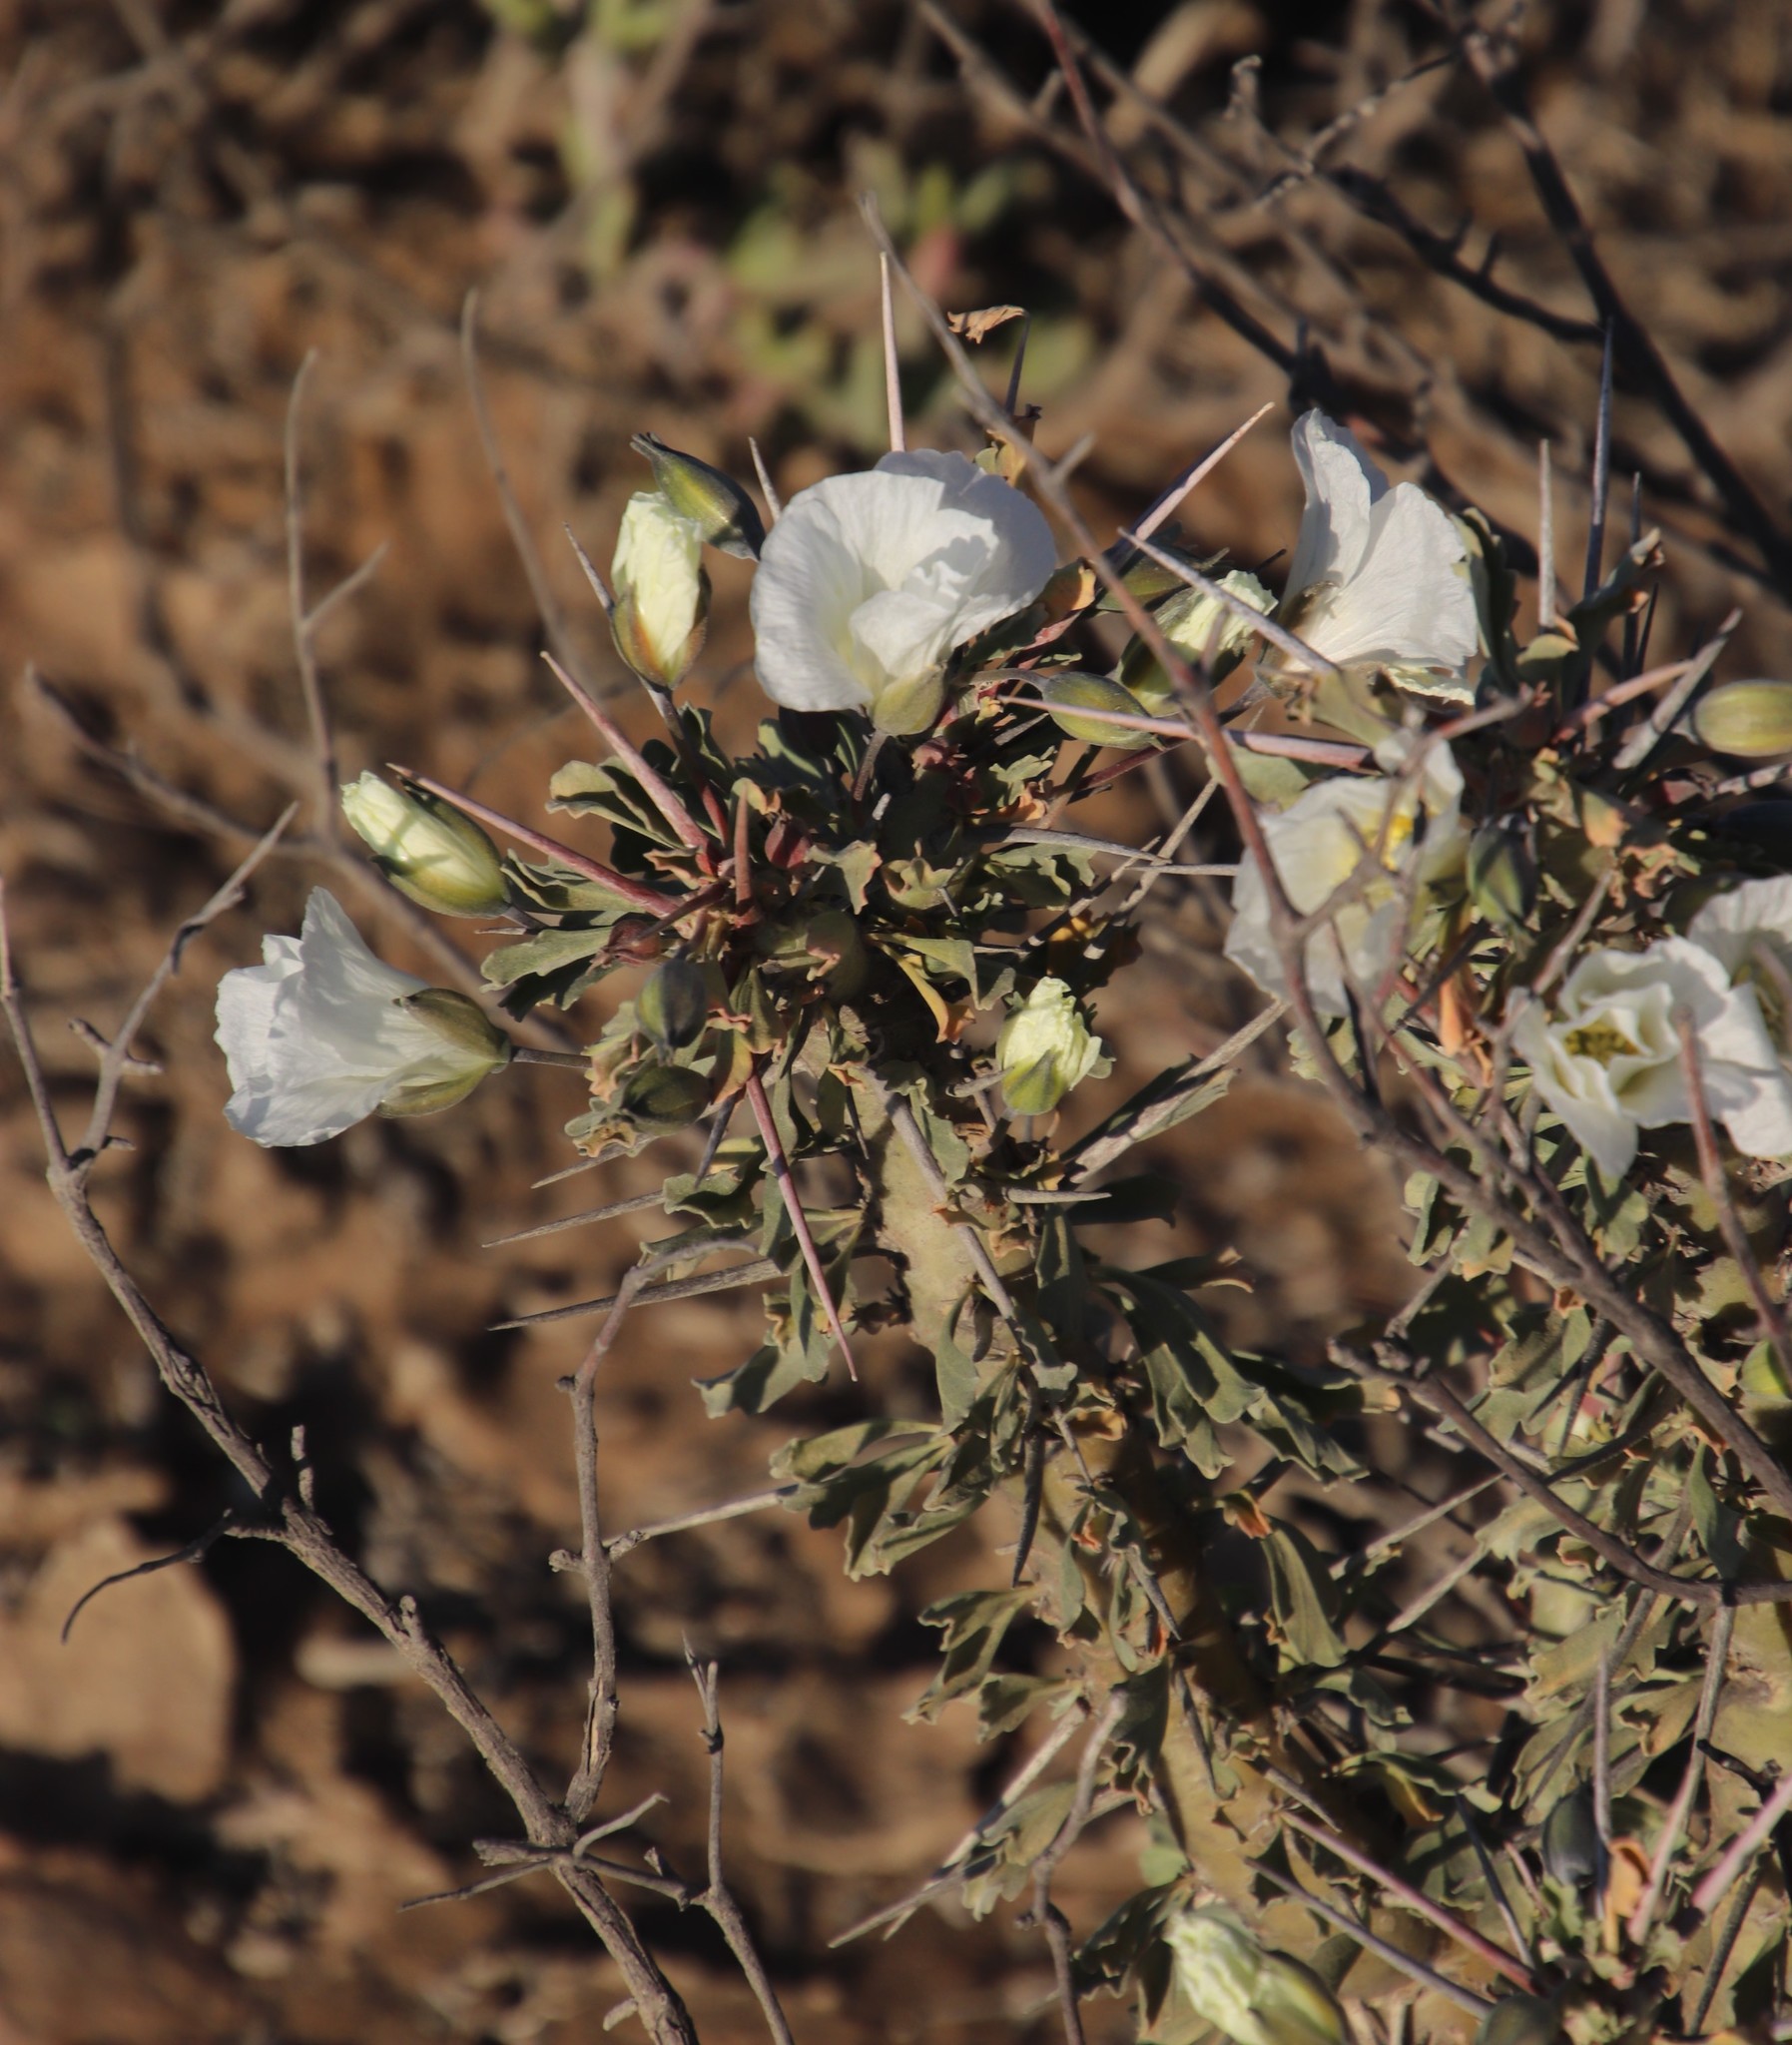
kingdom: Plantae
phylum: Tracheophyta
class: Magnoliopsida
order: Geraniales
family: Geraniaceae
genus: Monsonia
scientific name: Monsonia crassicaulis
